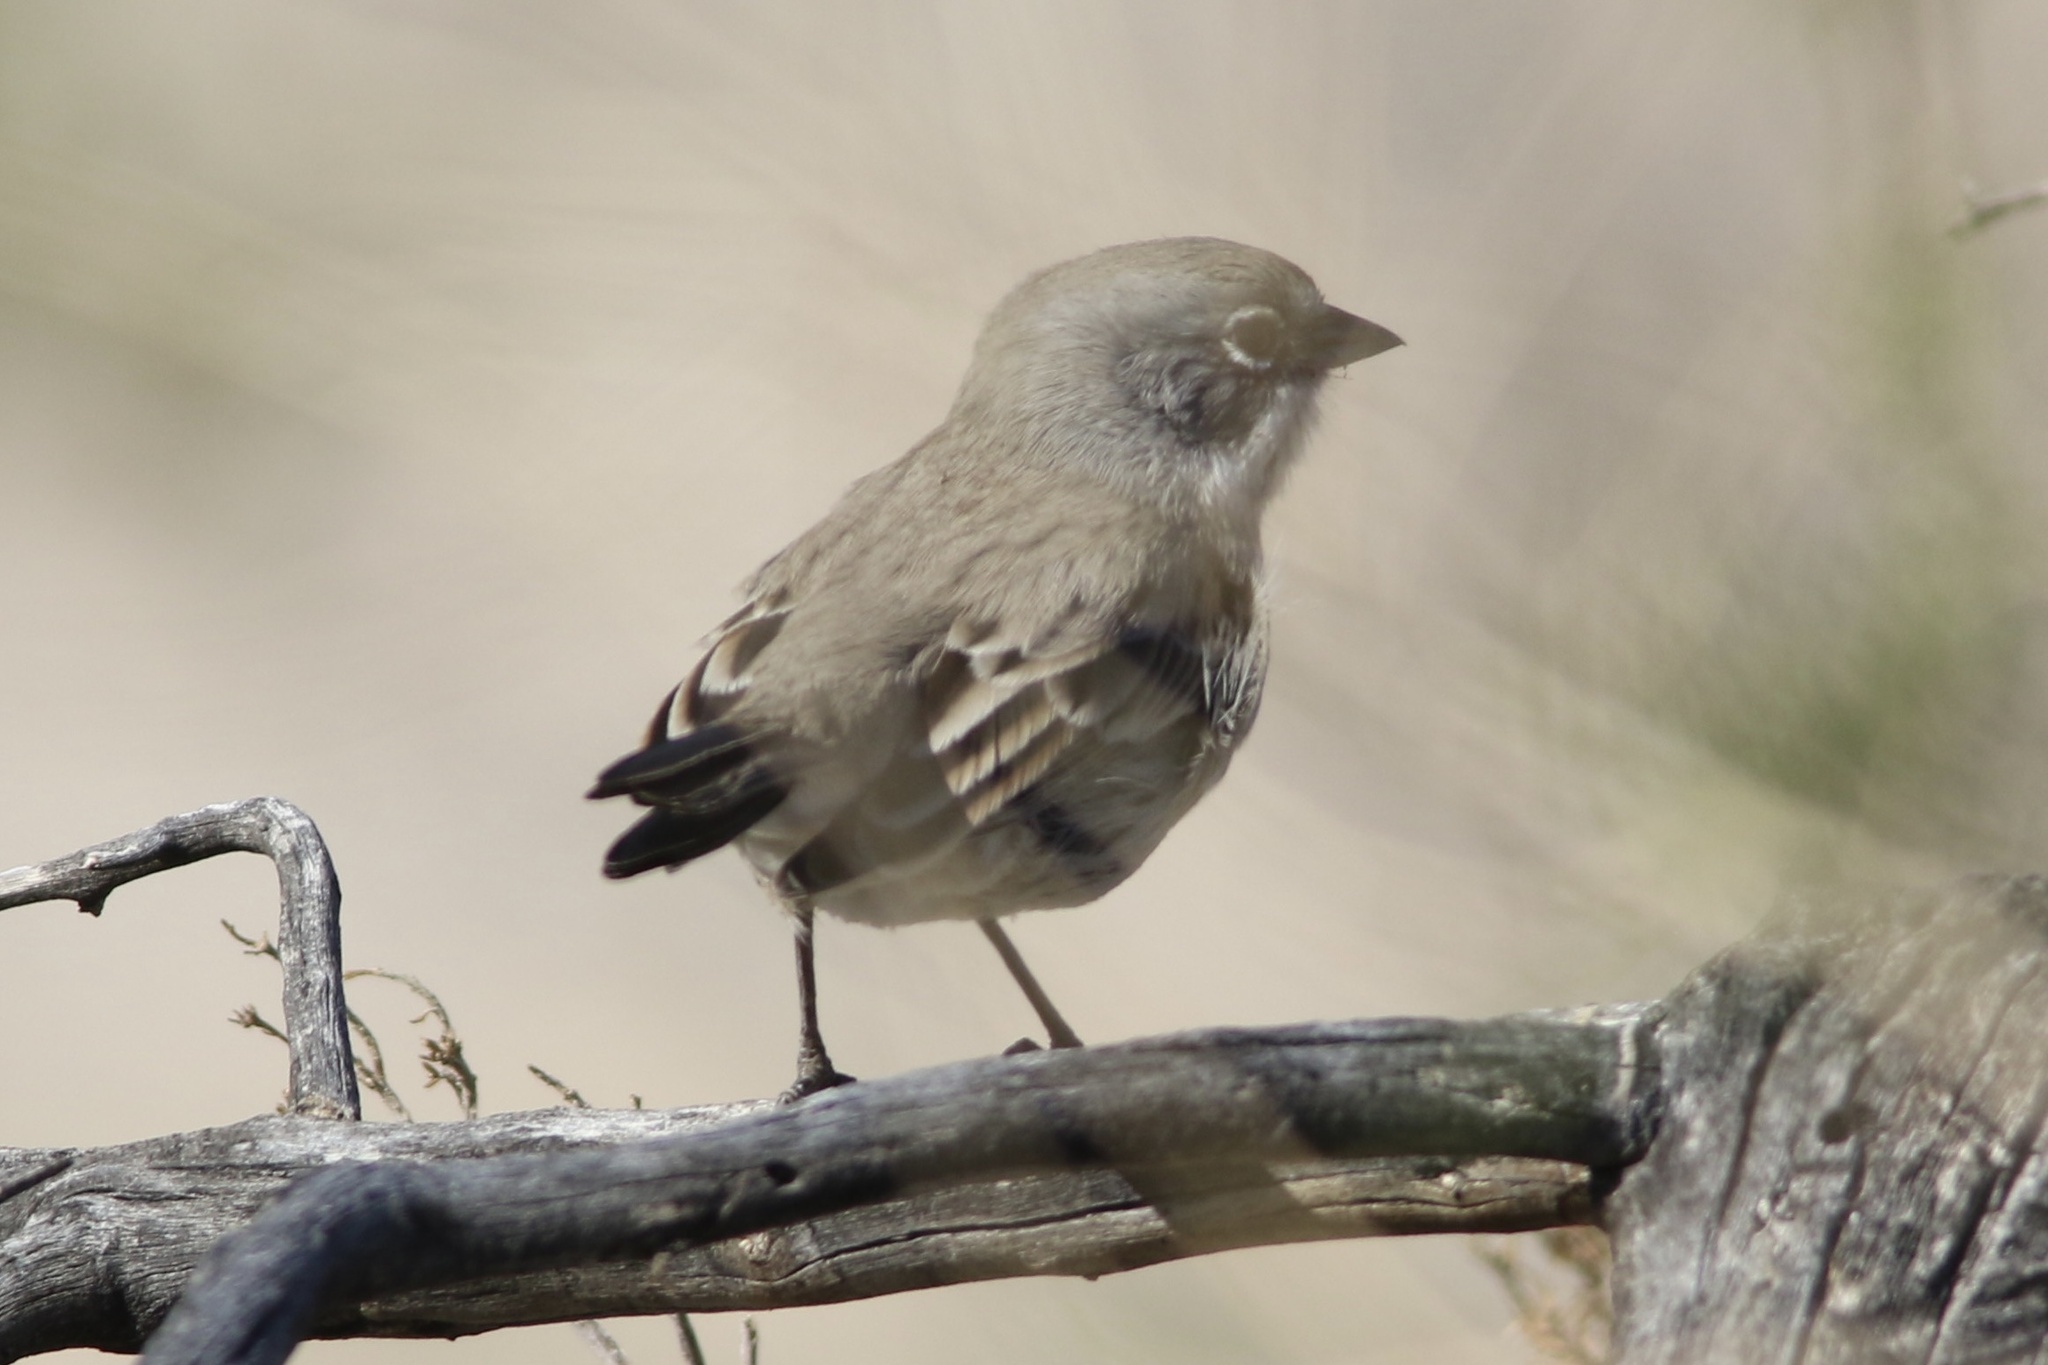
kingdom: Animalia
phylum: Chordata
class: Aves
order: Passeriformes
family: Passerellidae
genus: Artemisiospiza
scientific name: Artemisiospiza belli
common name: Bell's sparrow
